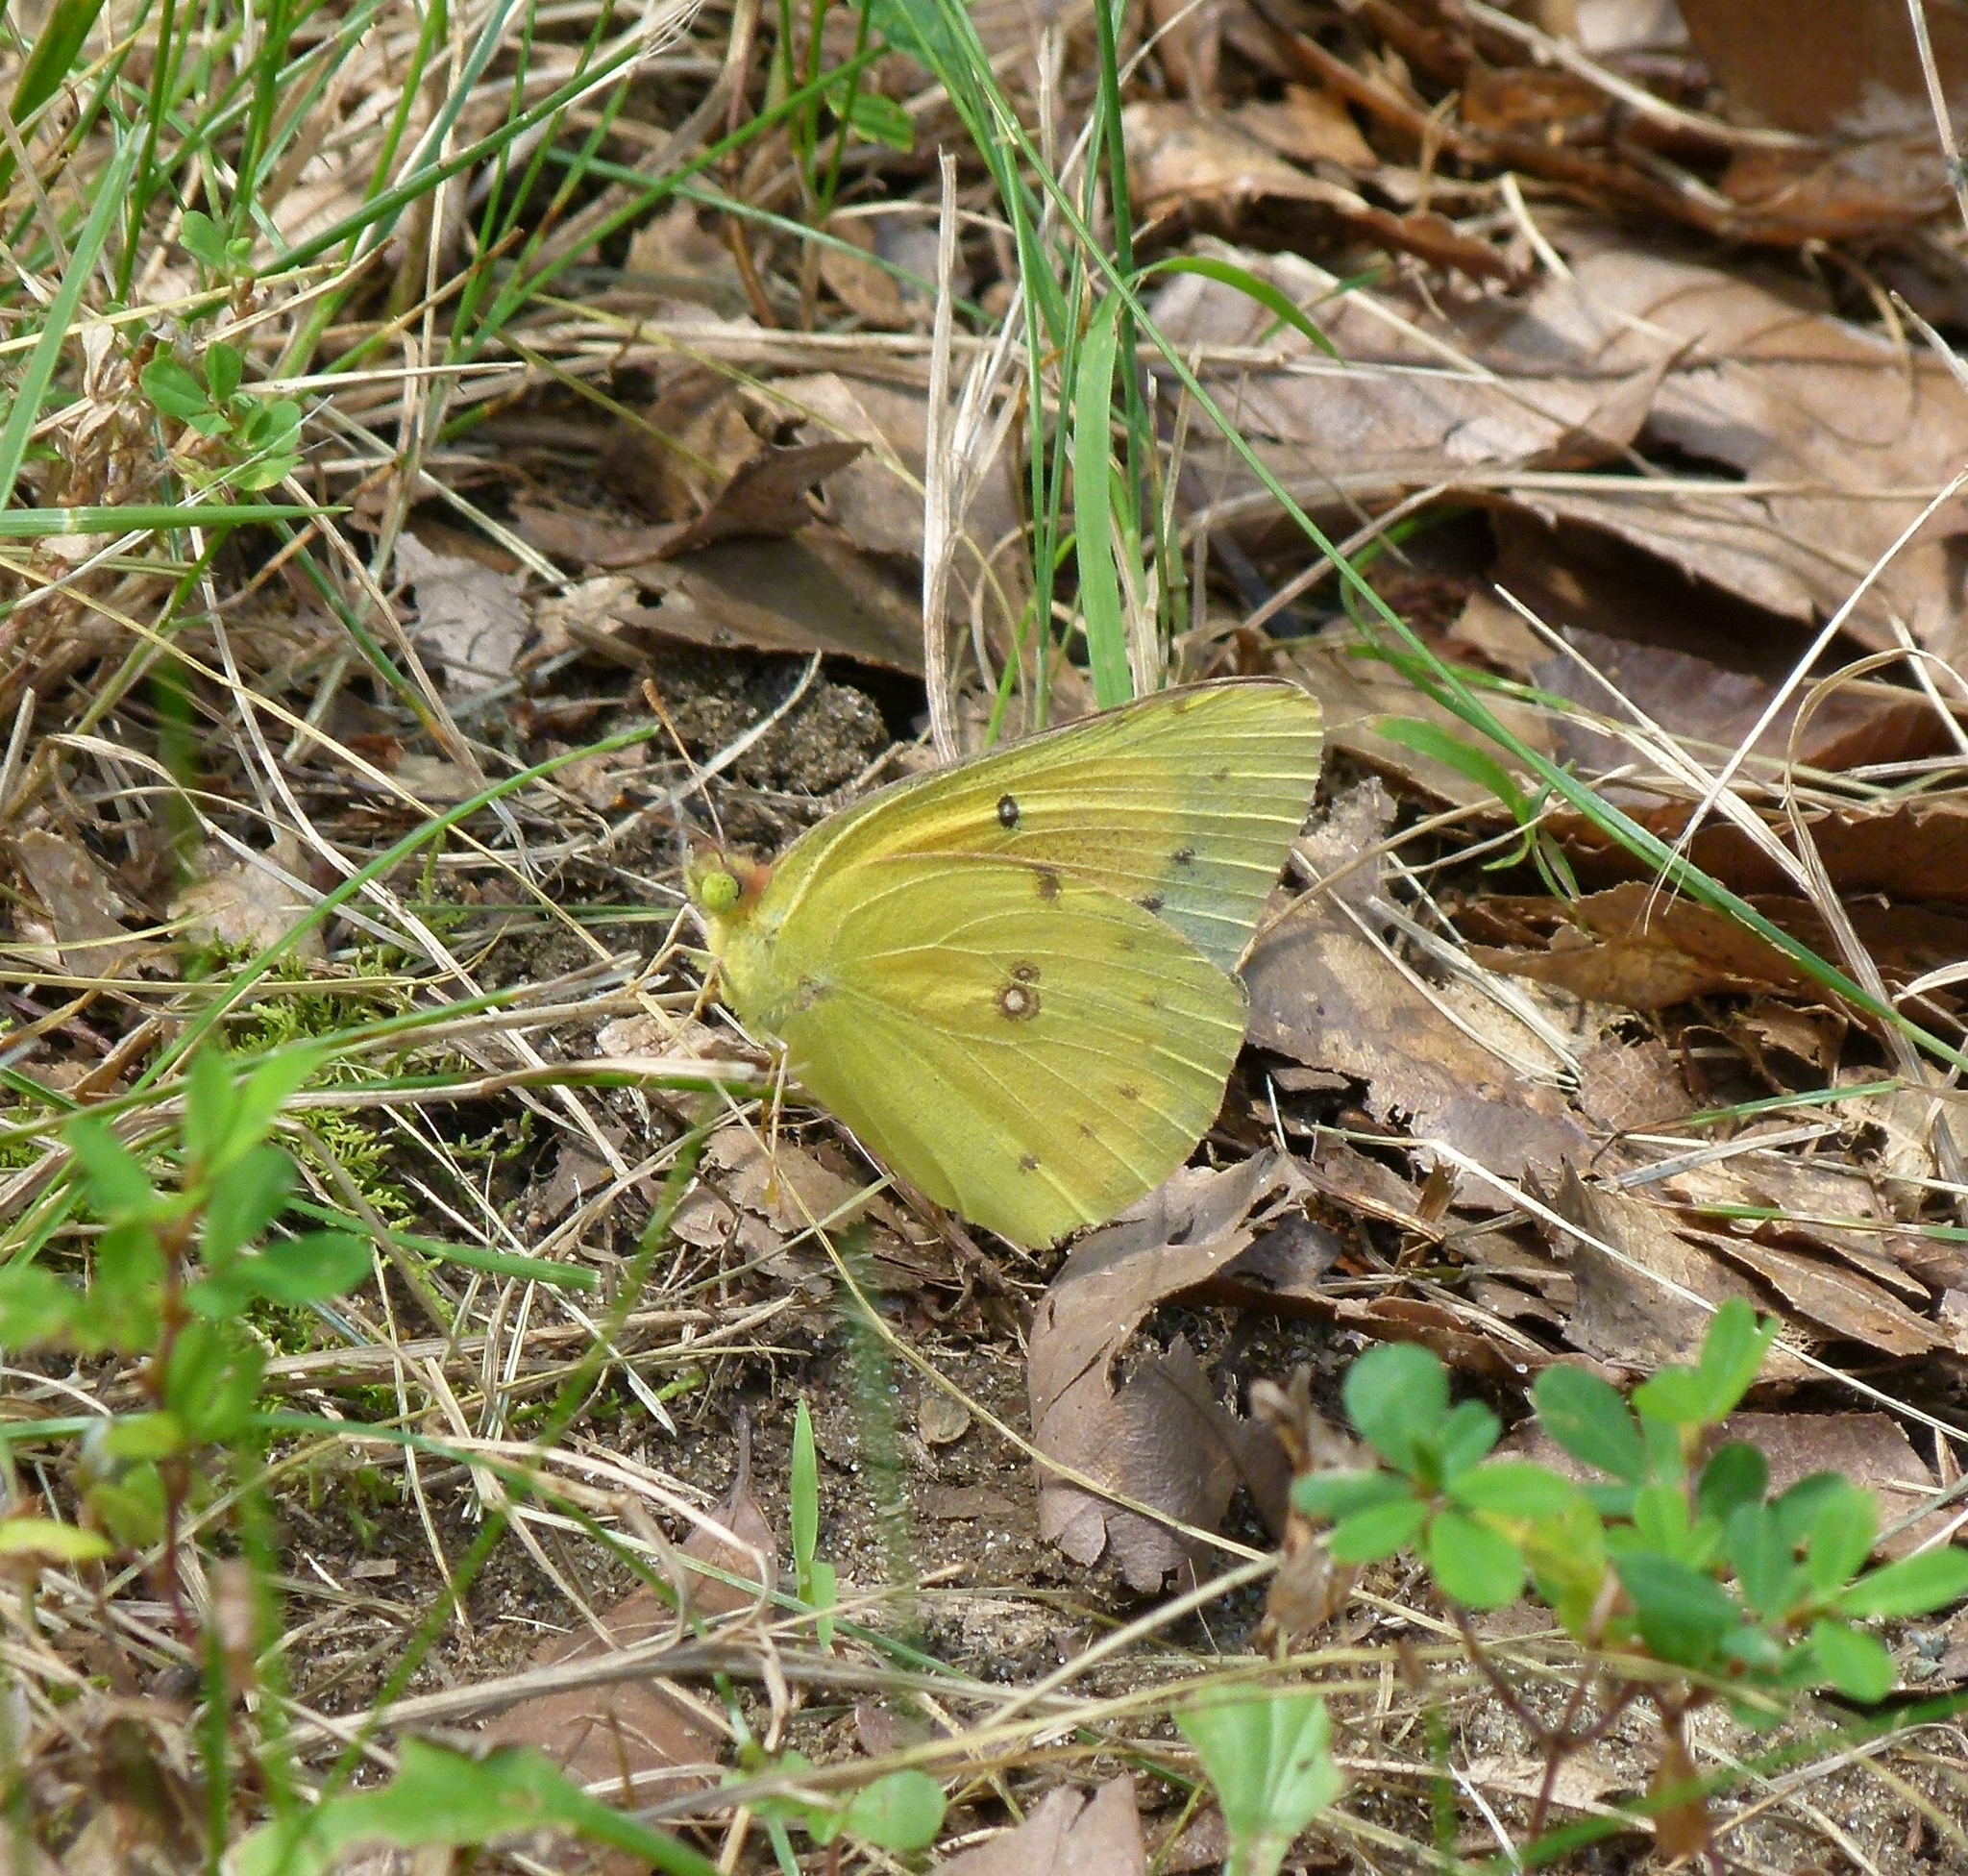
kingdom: Animalia
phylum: Arthropoda
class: Insecta
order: Lepidoptera
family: Pieridae
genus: Colias
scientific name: Colias eurytheme
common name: Alfalfa butterfly
